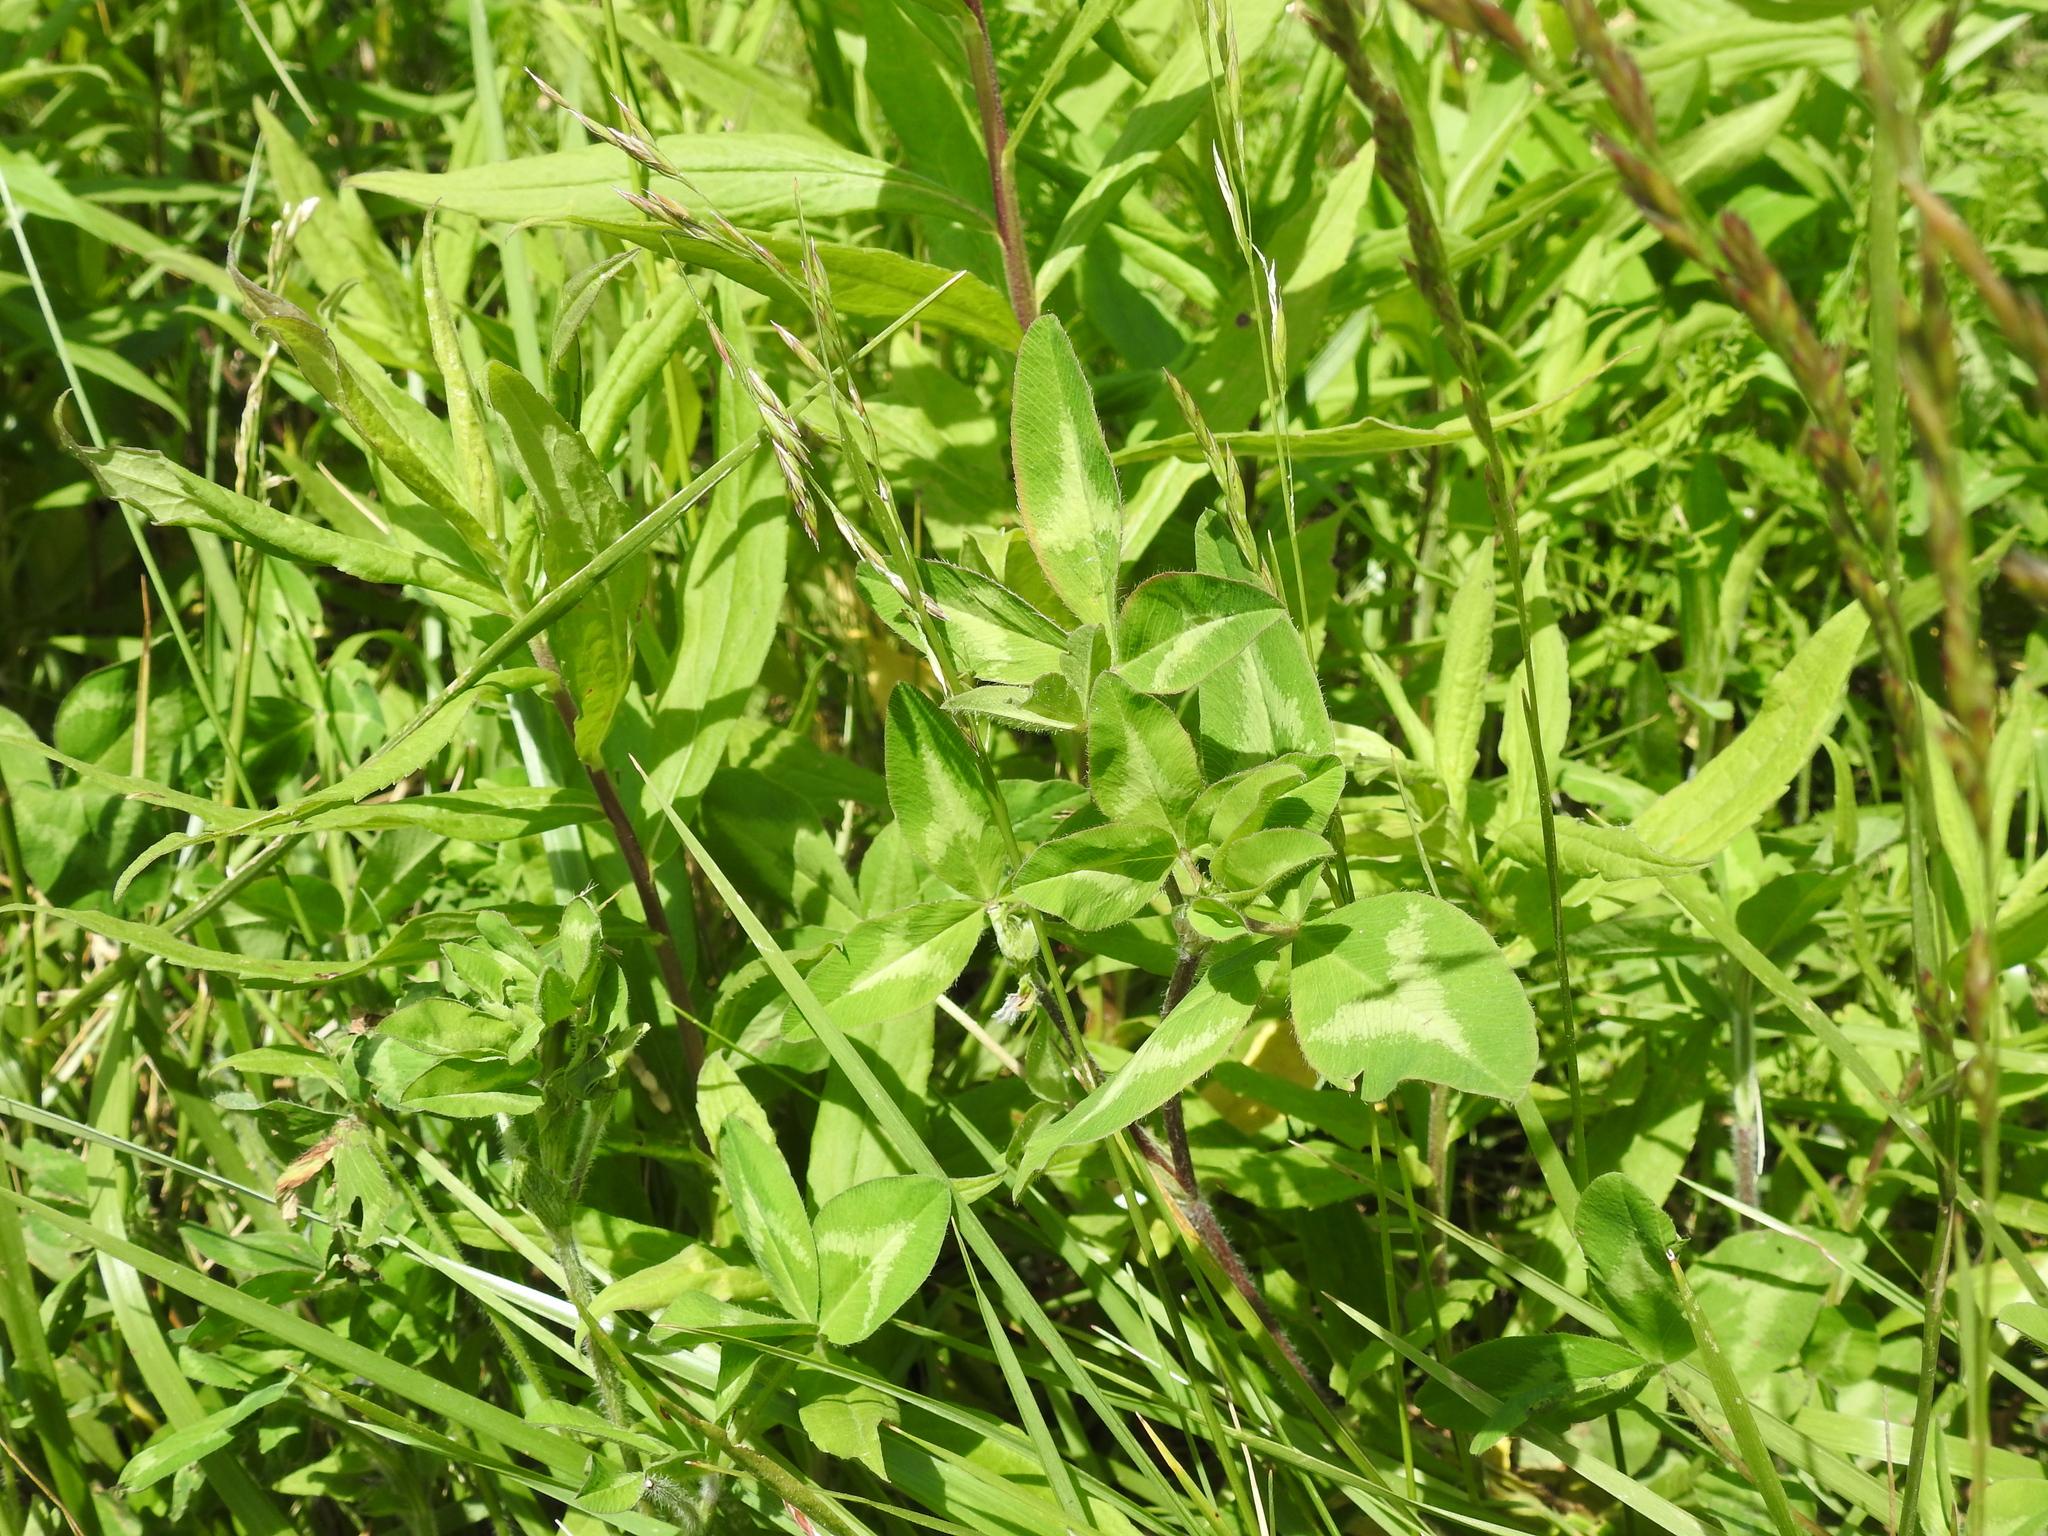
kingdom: Plantae
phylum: Tracheophyta
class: Magnoliopsida
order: Fabales
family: Fabaceae
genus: Trifolium
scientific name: Trifolium pratense
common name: Red clover
